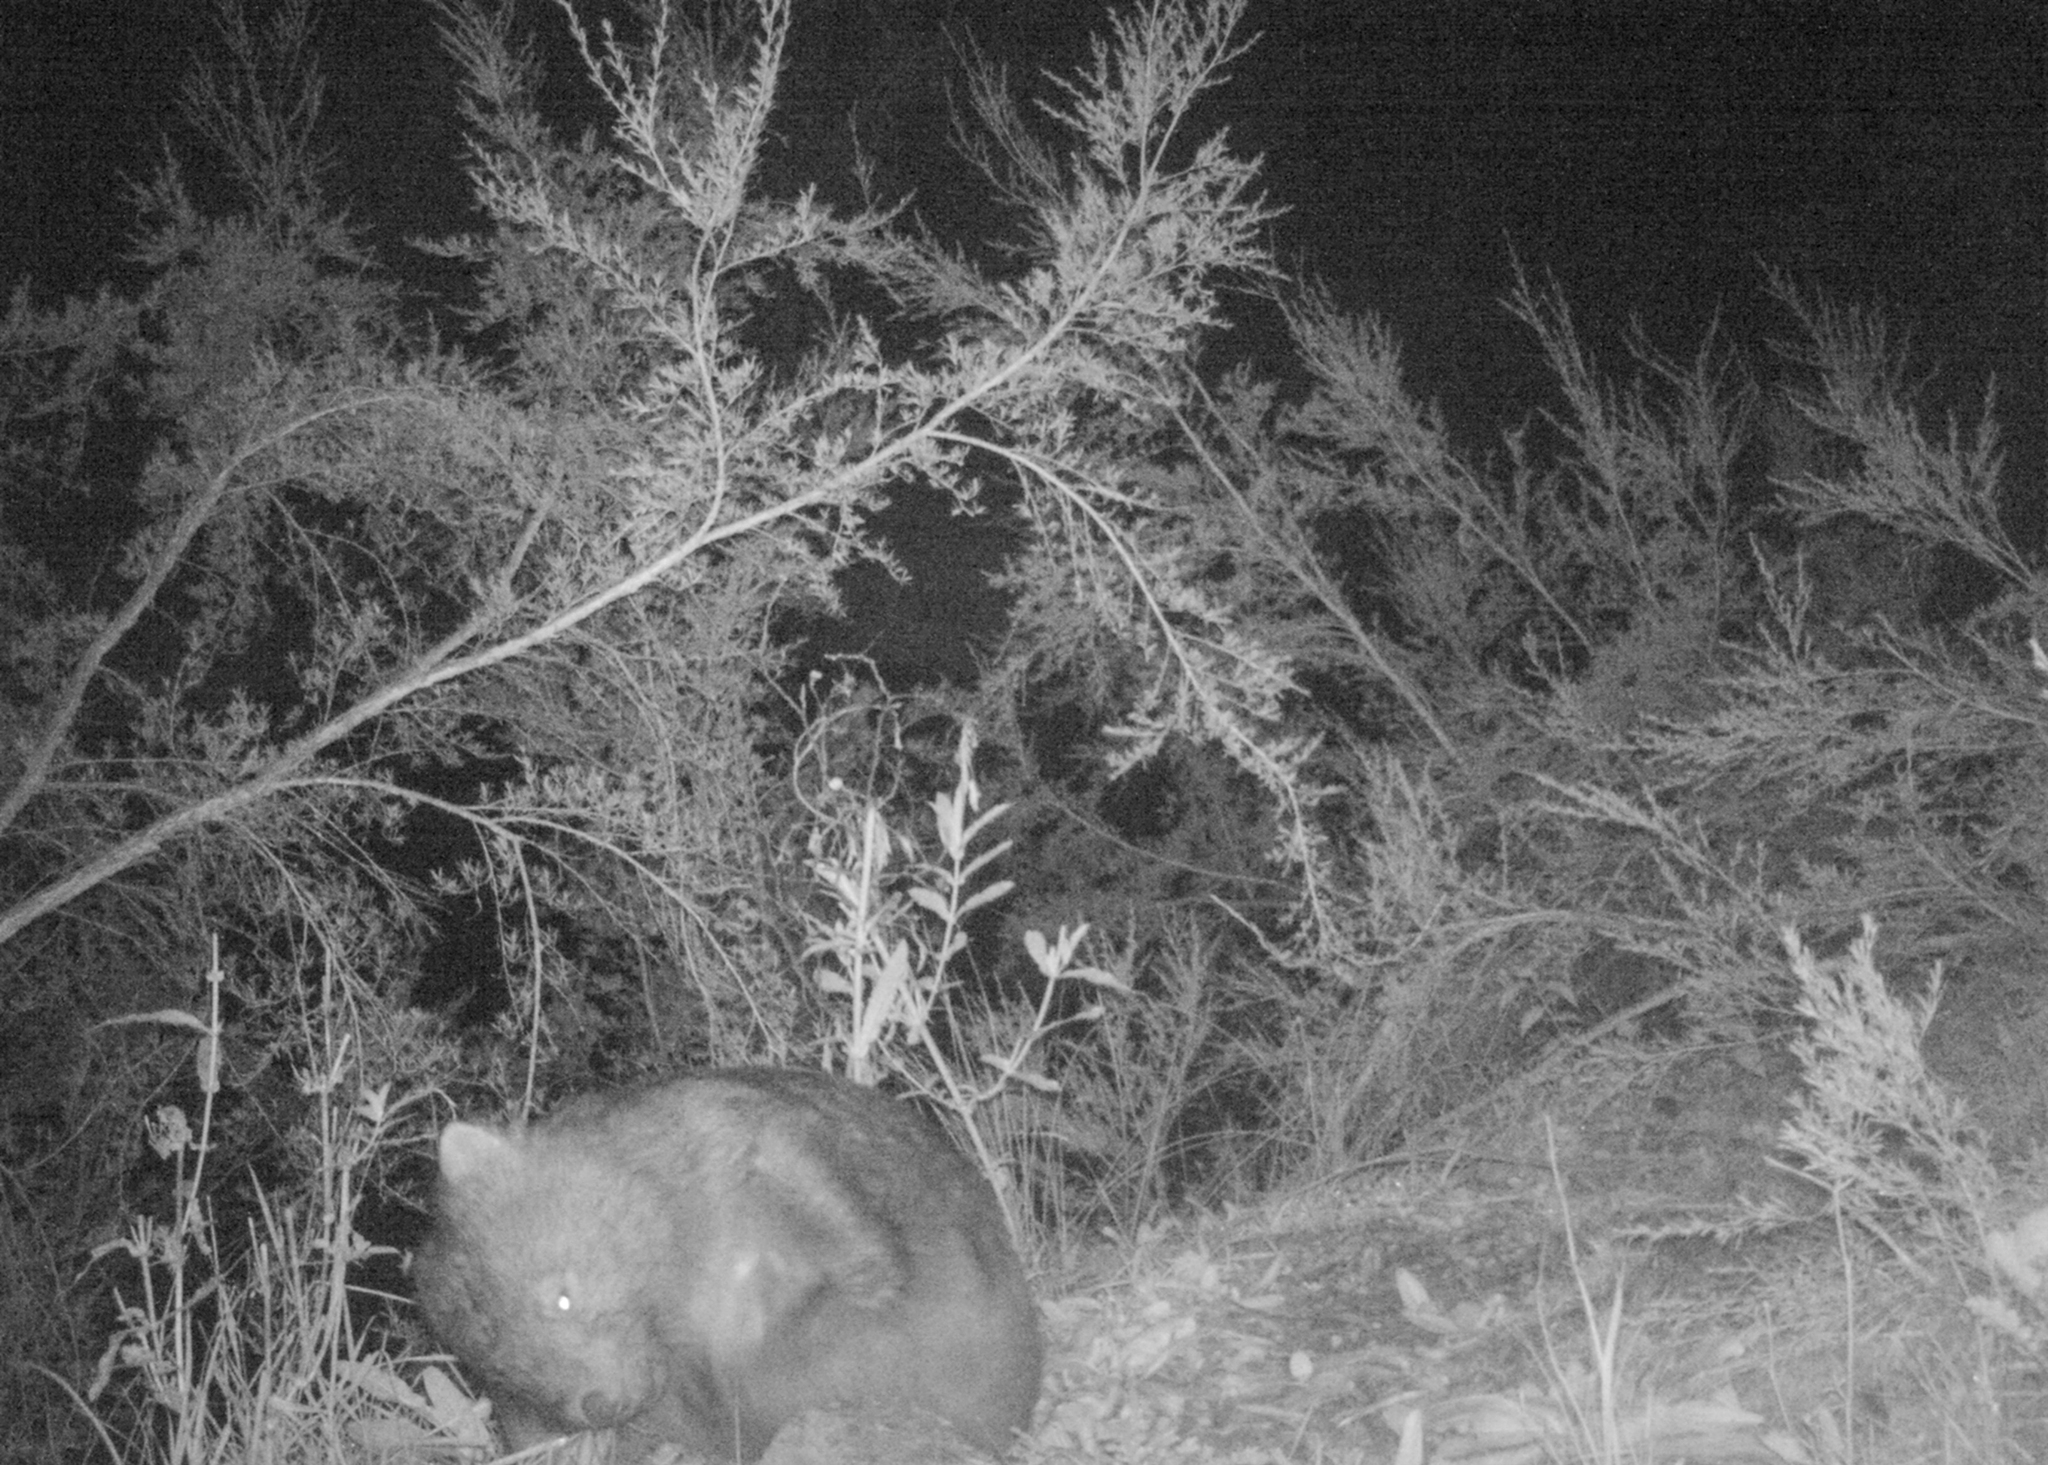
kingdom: Animalia
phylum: Chordata
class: Mammalia
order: Diprotodontia
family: Vombatidae
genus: Vombatus
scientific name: Vombatus ursinus
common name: Common wombat
